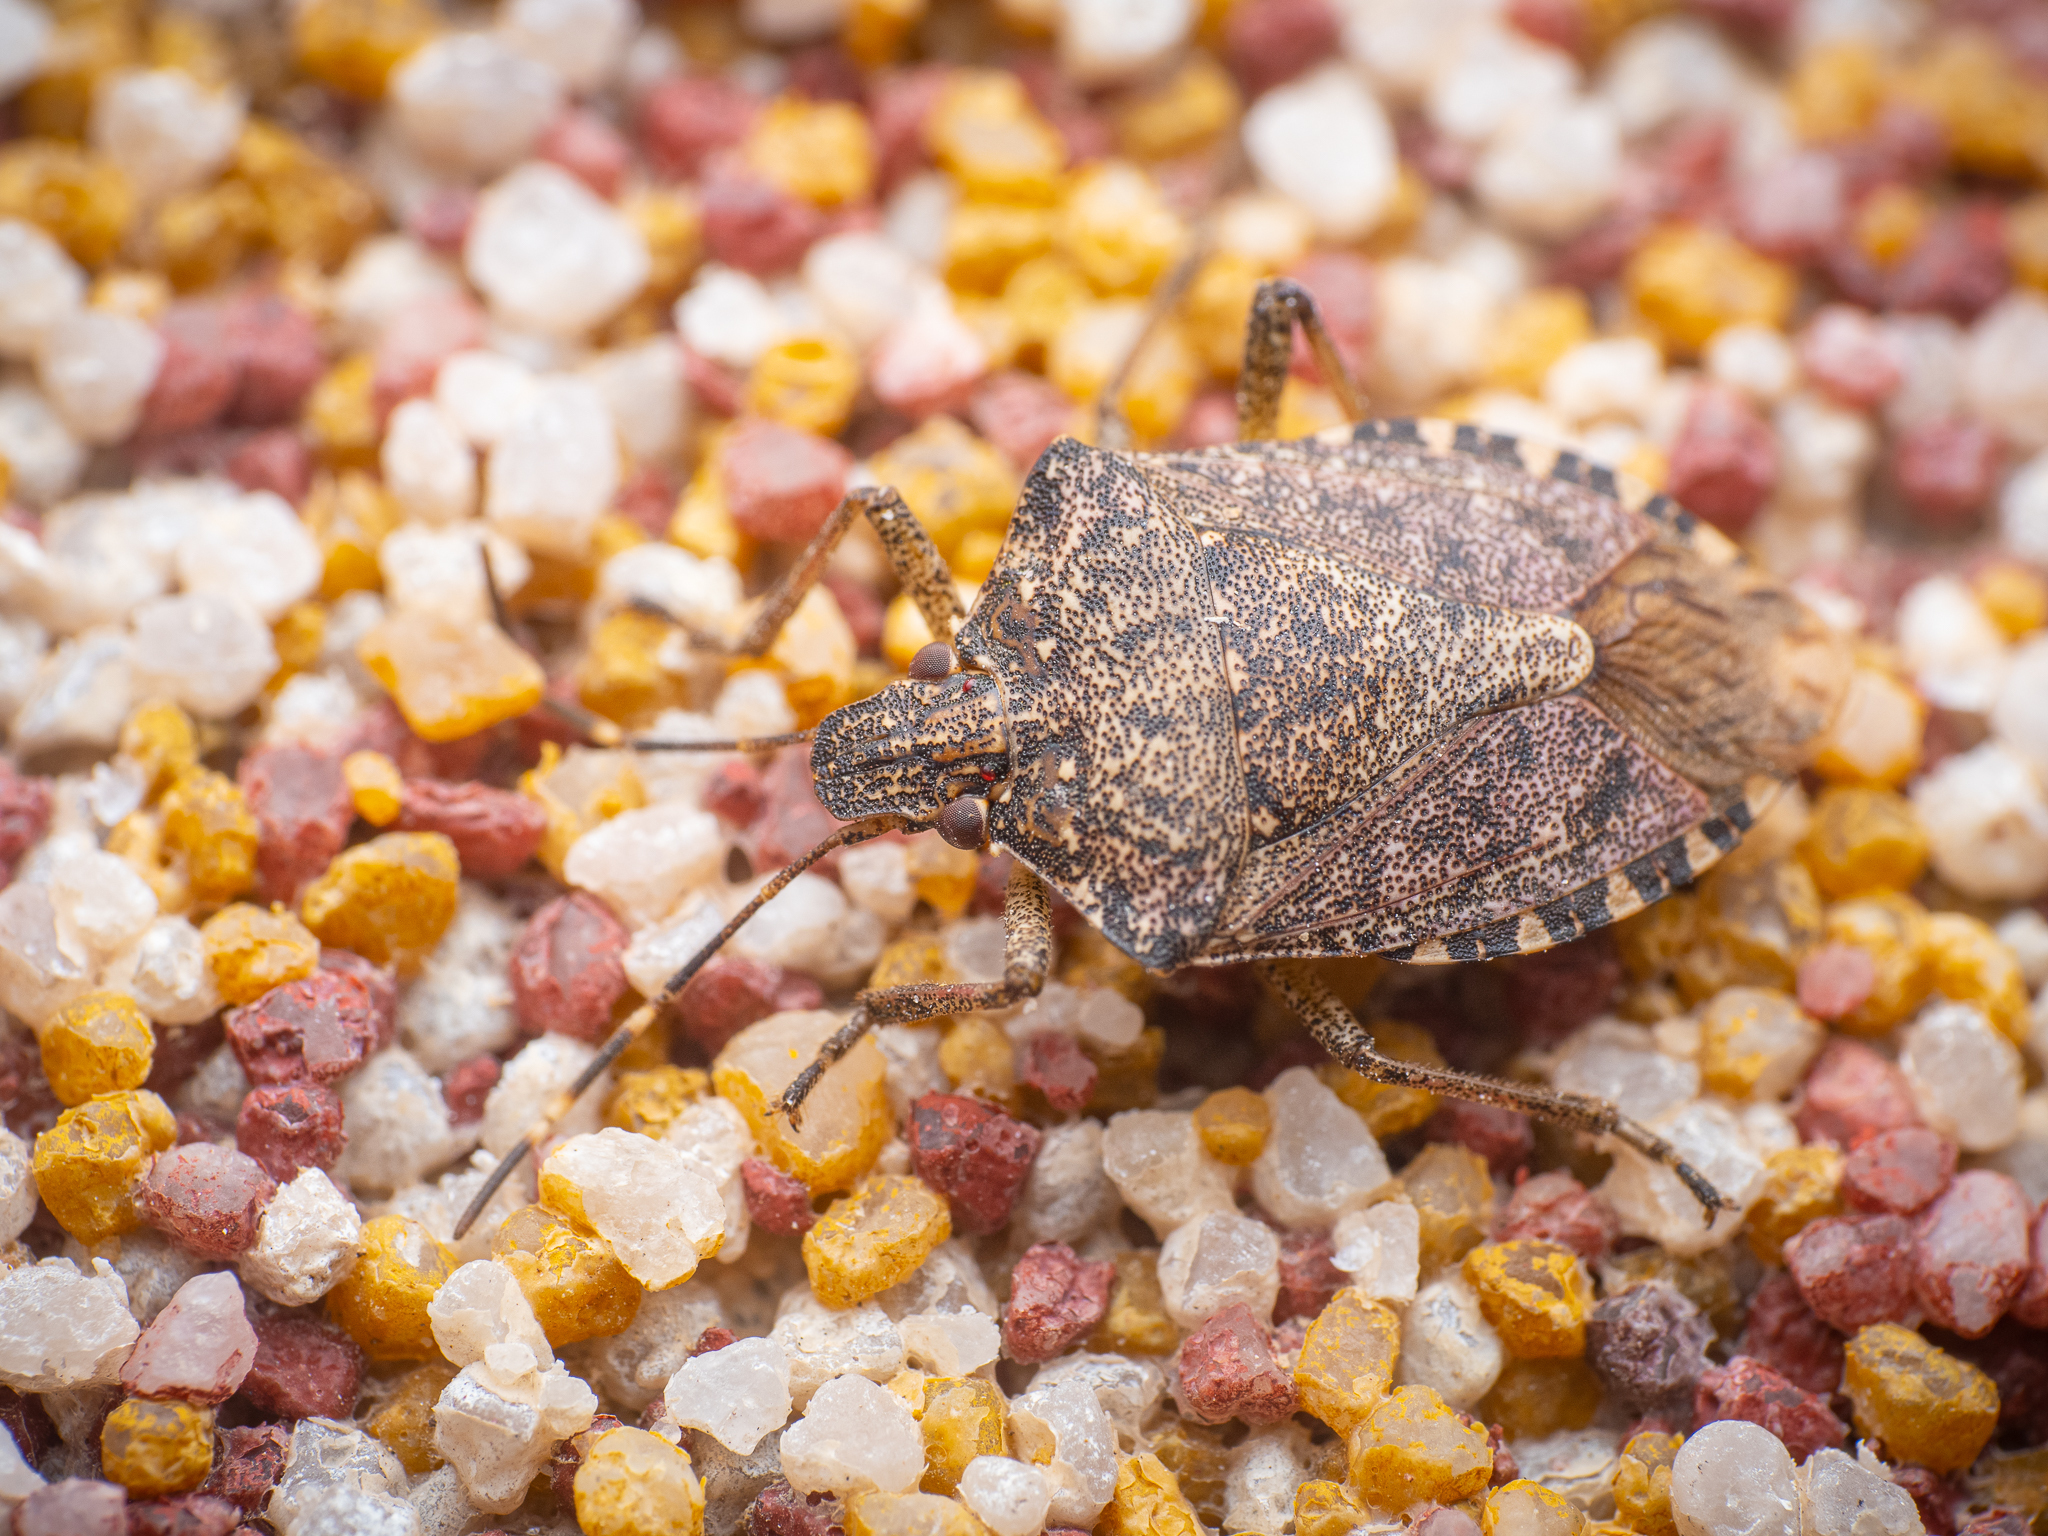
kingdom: Animalia
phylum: Arthropoda
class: Insecta
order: Hemiptera
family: Pentatomidae
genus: Halyomorpha
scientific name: Halyomorpha halys
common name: Brown marmorated stink bug
